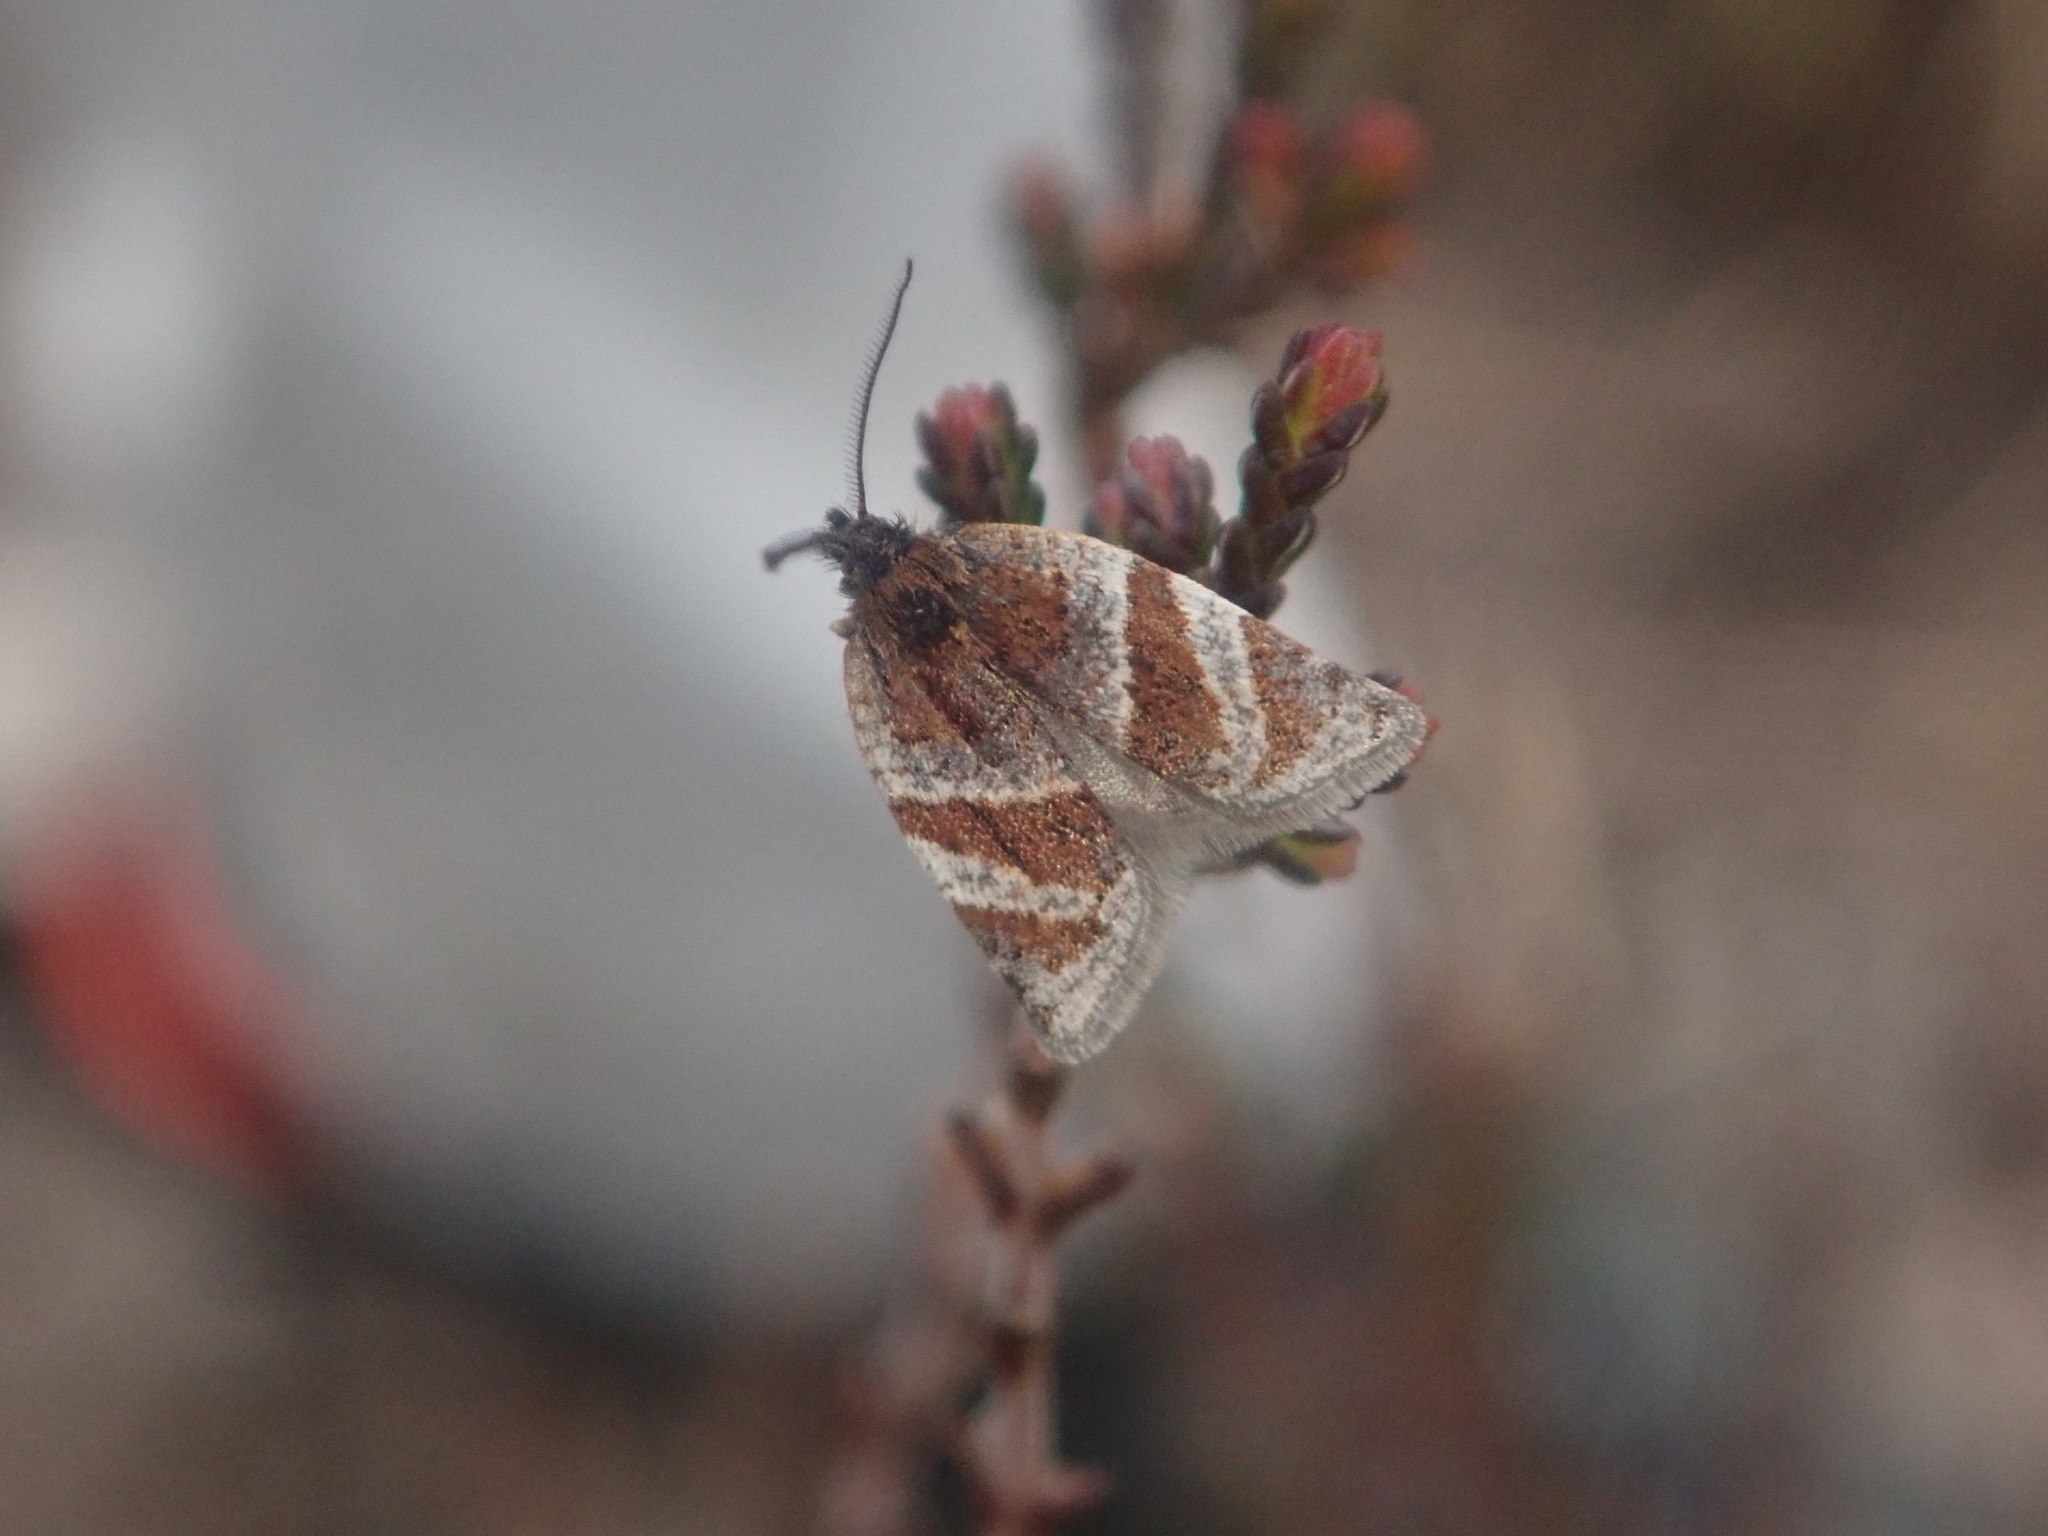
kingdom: Animalia
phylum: Arthropoda
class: Insecta
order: Lepidoptera
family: Tortricidae
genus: Philedonides
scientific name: Philedonides lunana
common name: Heath twist
